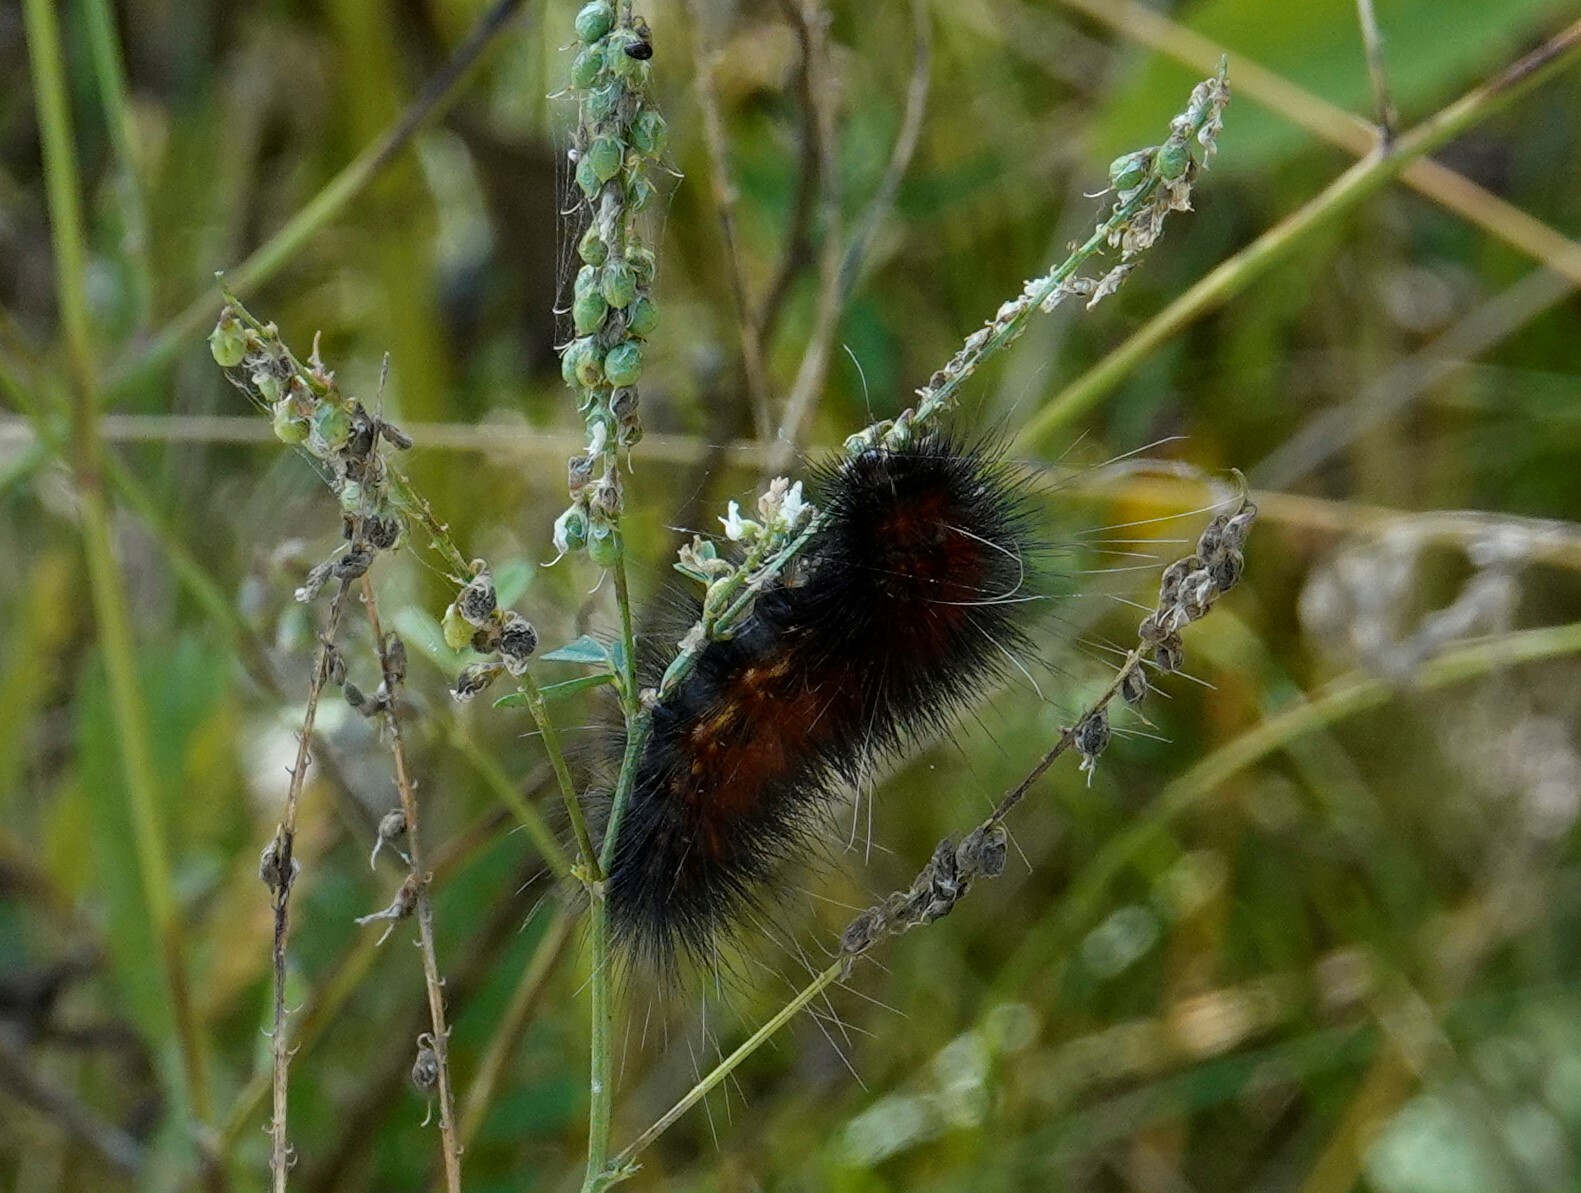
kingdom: Animalia
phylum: Arthropoda
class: Insecta
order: Lepidoptera
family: Erebidae
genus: Pyrrharctia
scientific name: Pyrrharctia isabella
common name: Isabella tiger moth
